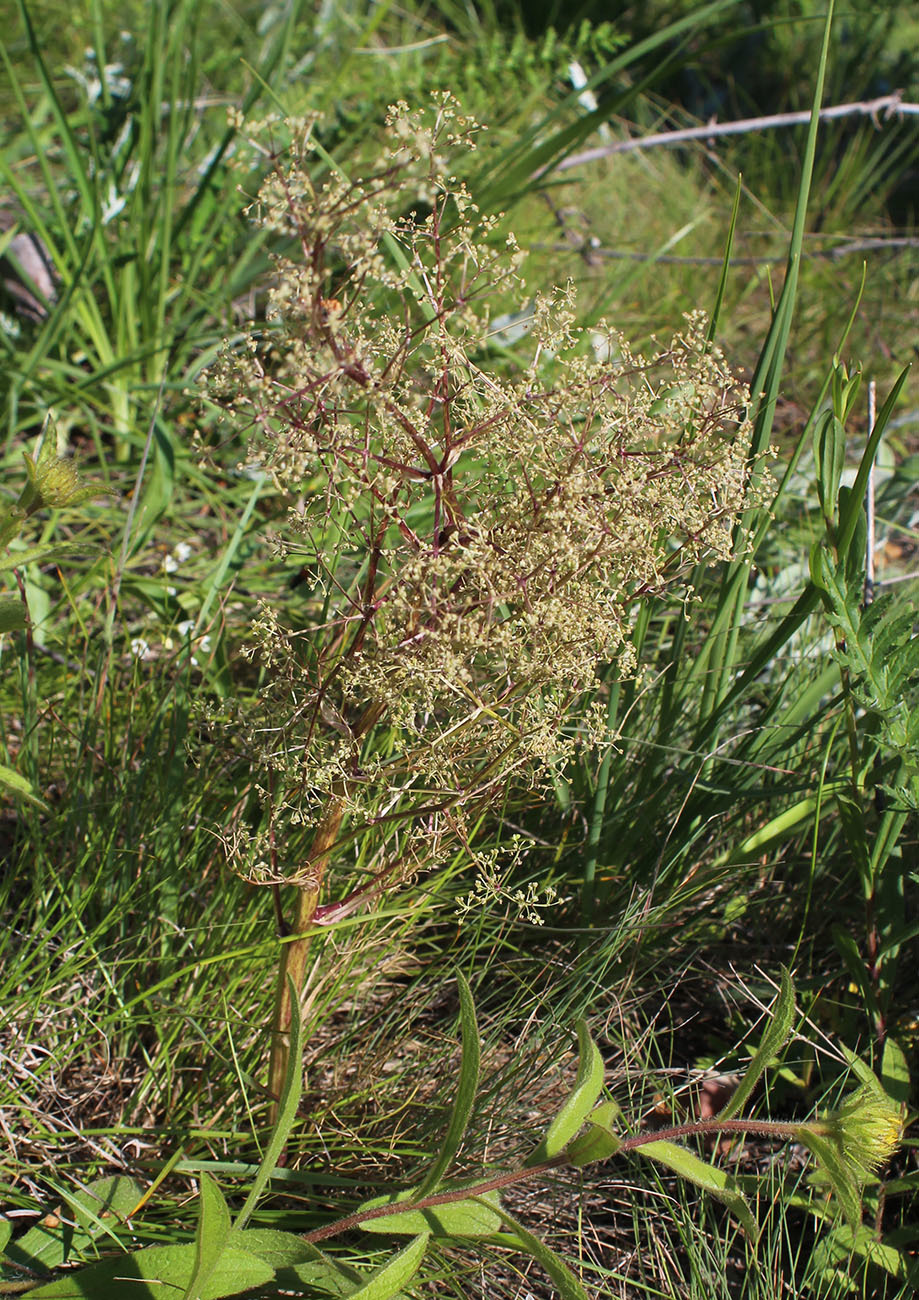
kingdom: Plantae
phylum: Tracheophyta
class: Magnoliopsida
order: Apiales
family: Apiaceae
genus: Trinia
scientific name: Trinia multicaulis
